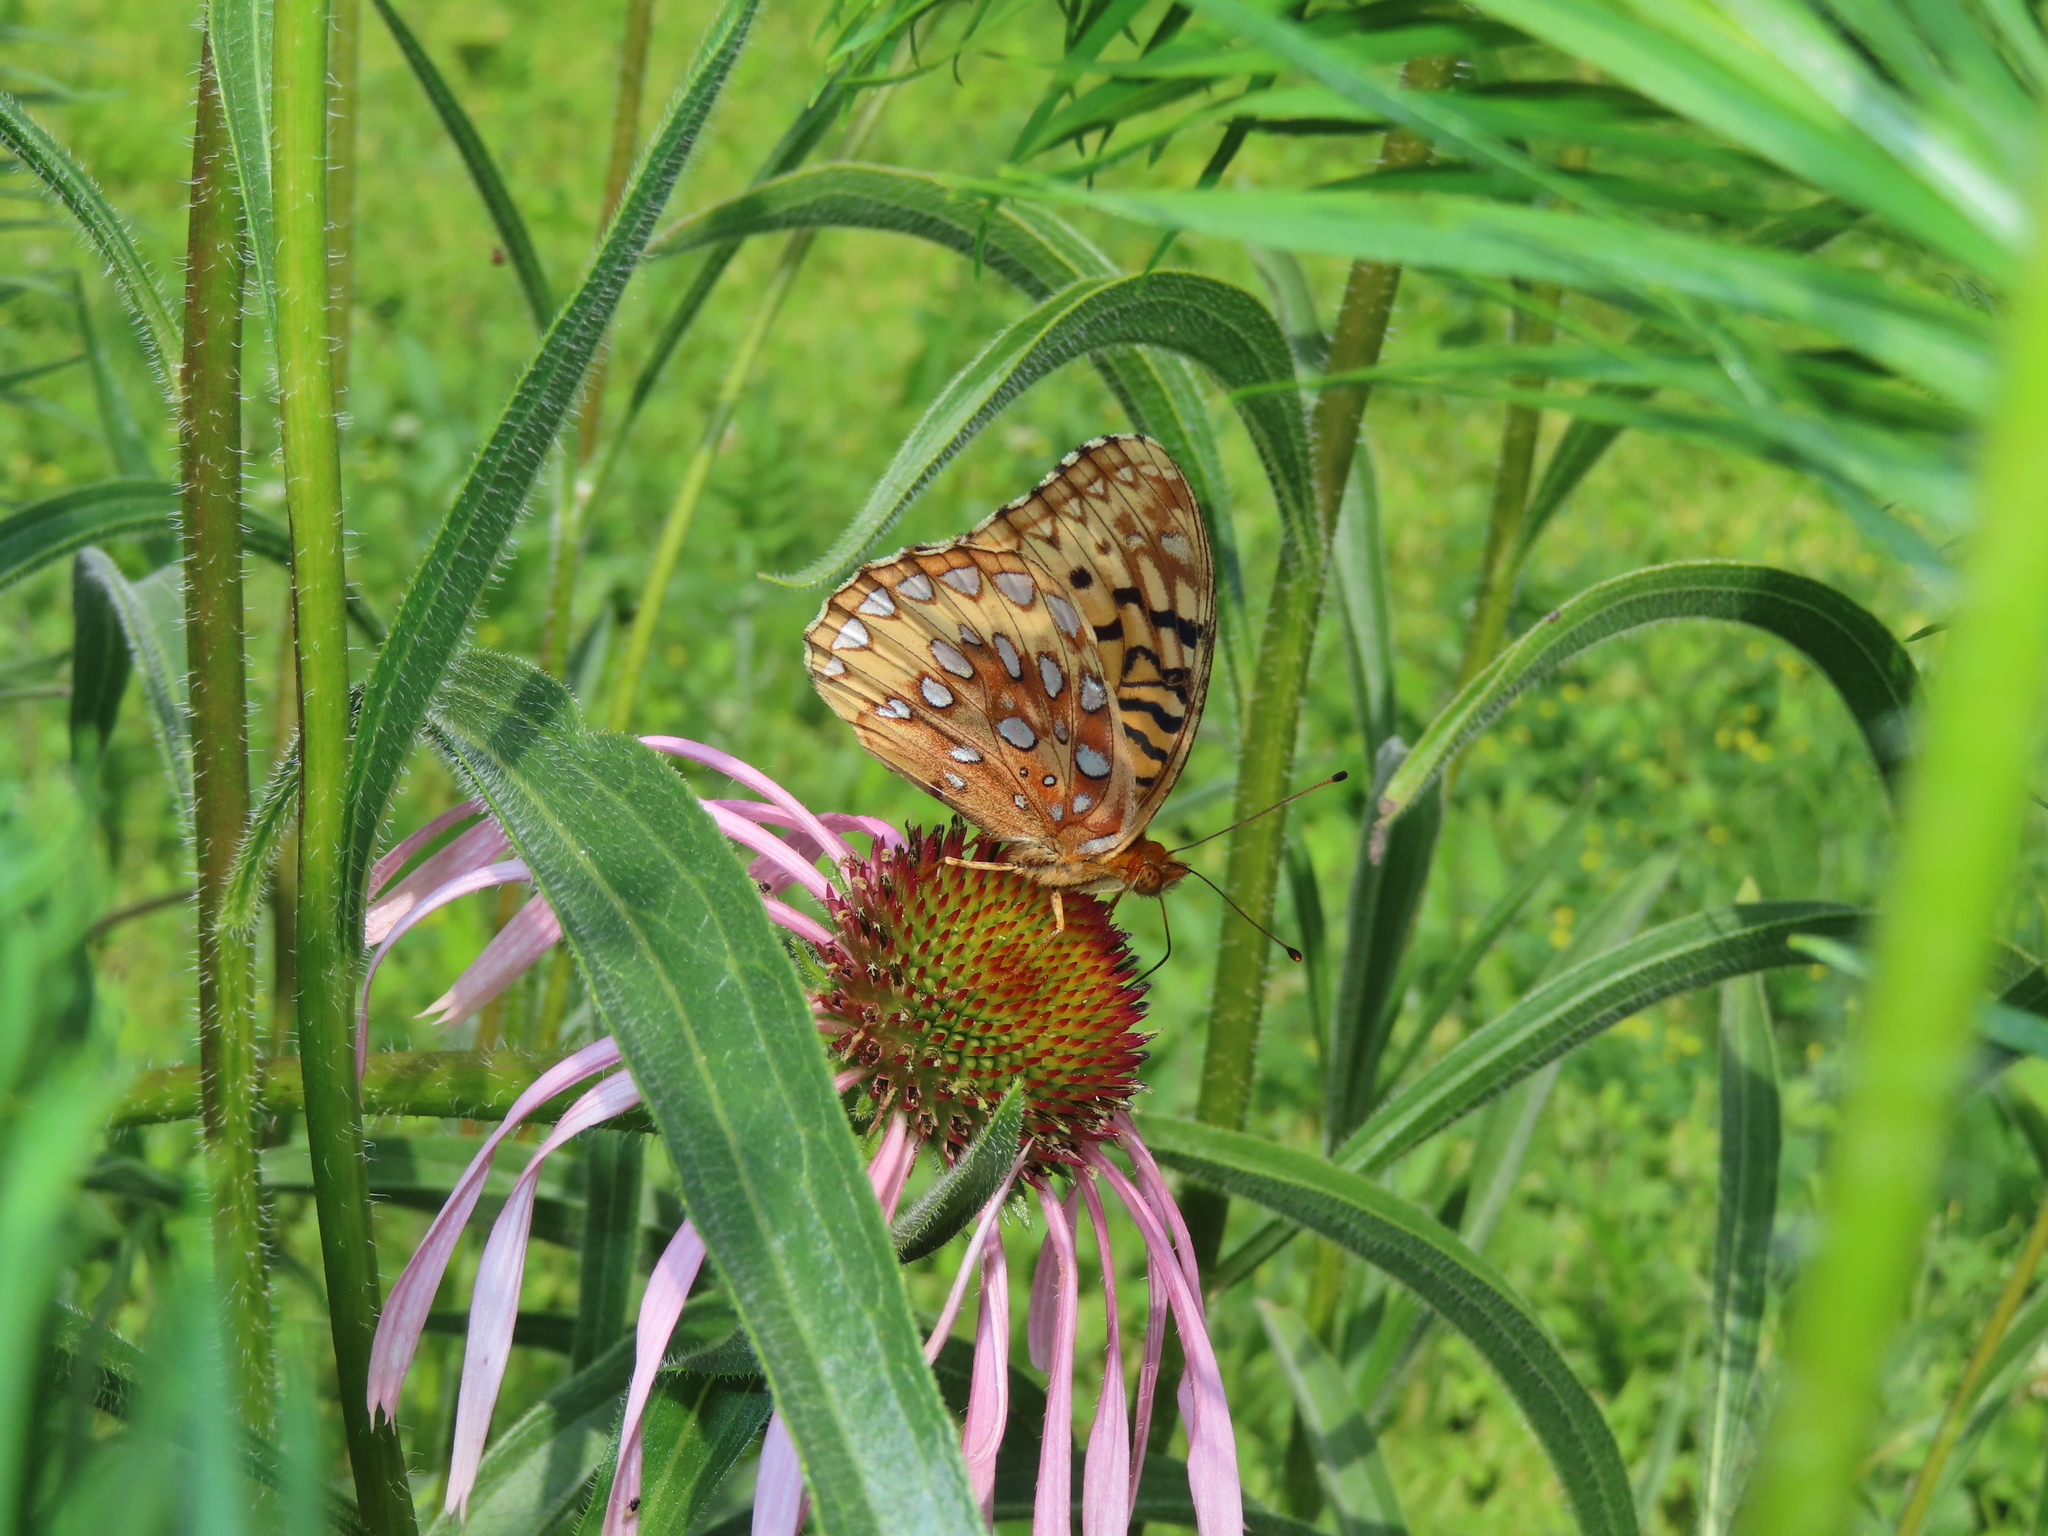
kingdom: Animalia
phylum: Arthropoda
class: Insecta
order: Lepidoptera
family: Nymphalidae
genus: Speyeria
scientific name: Speyeria cybele
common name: Great spangled fritillary
